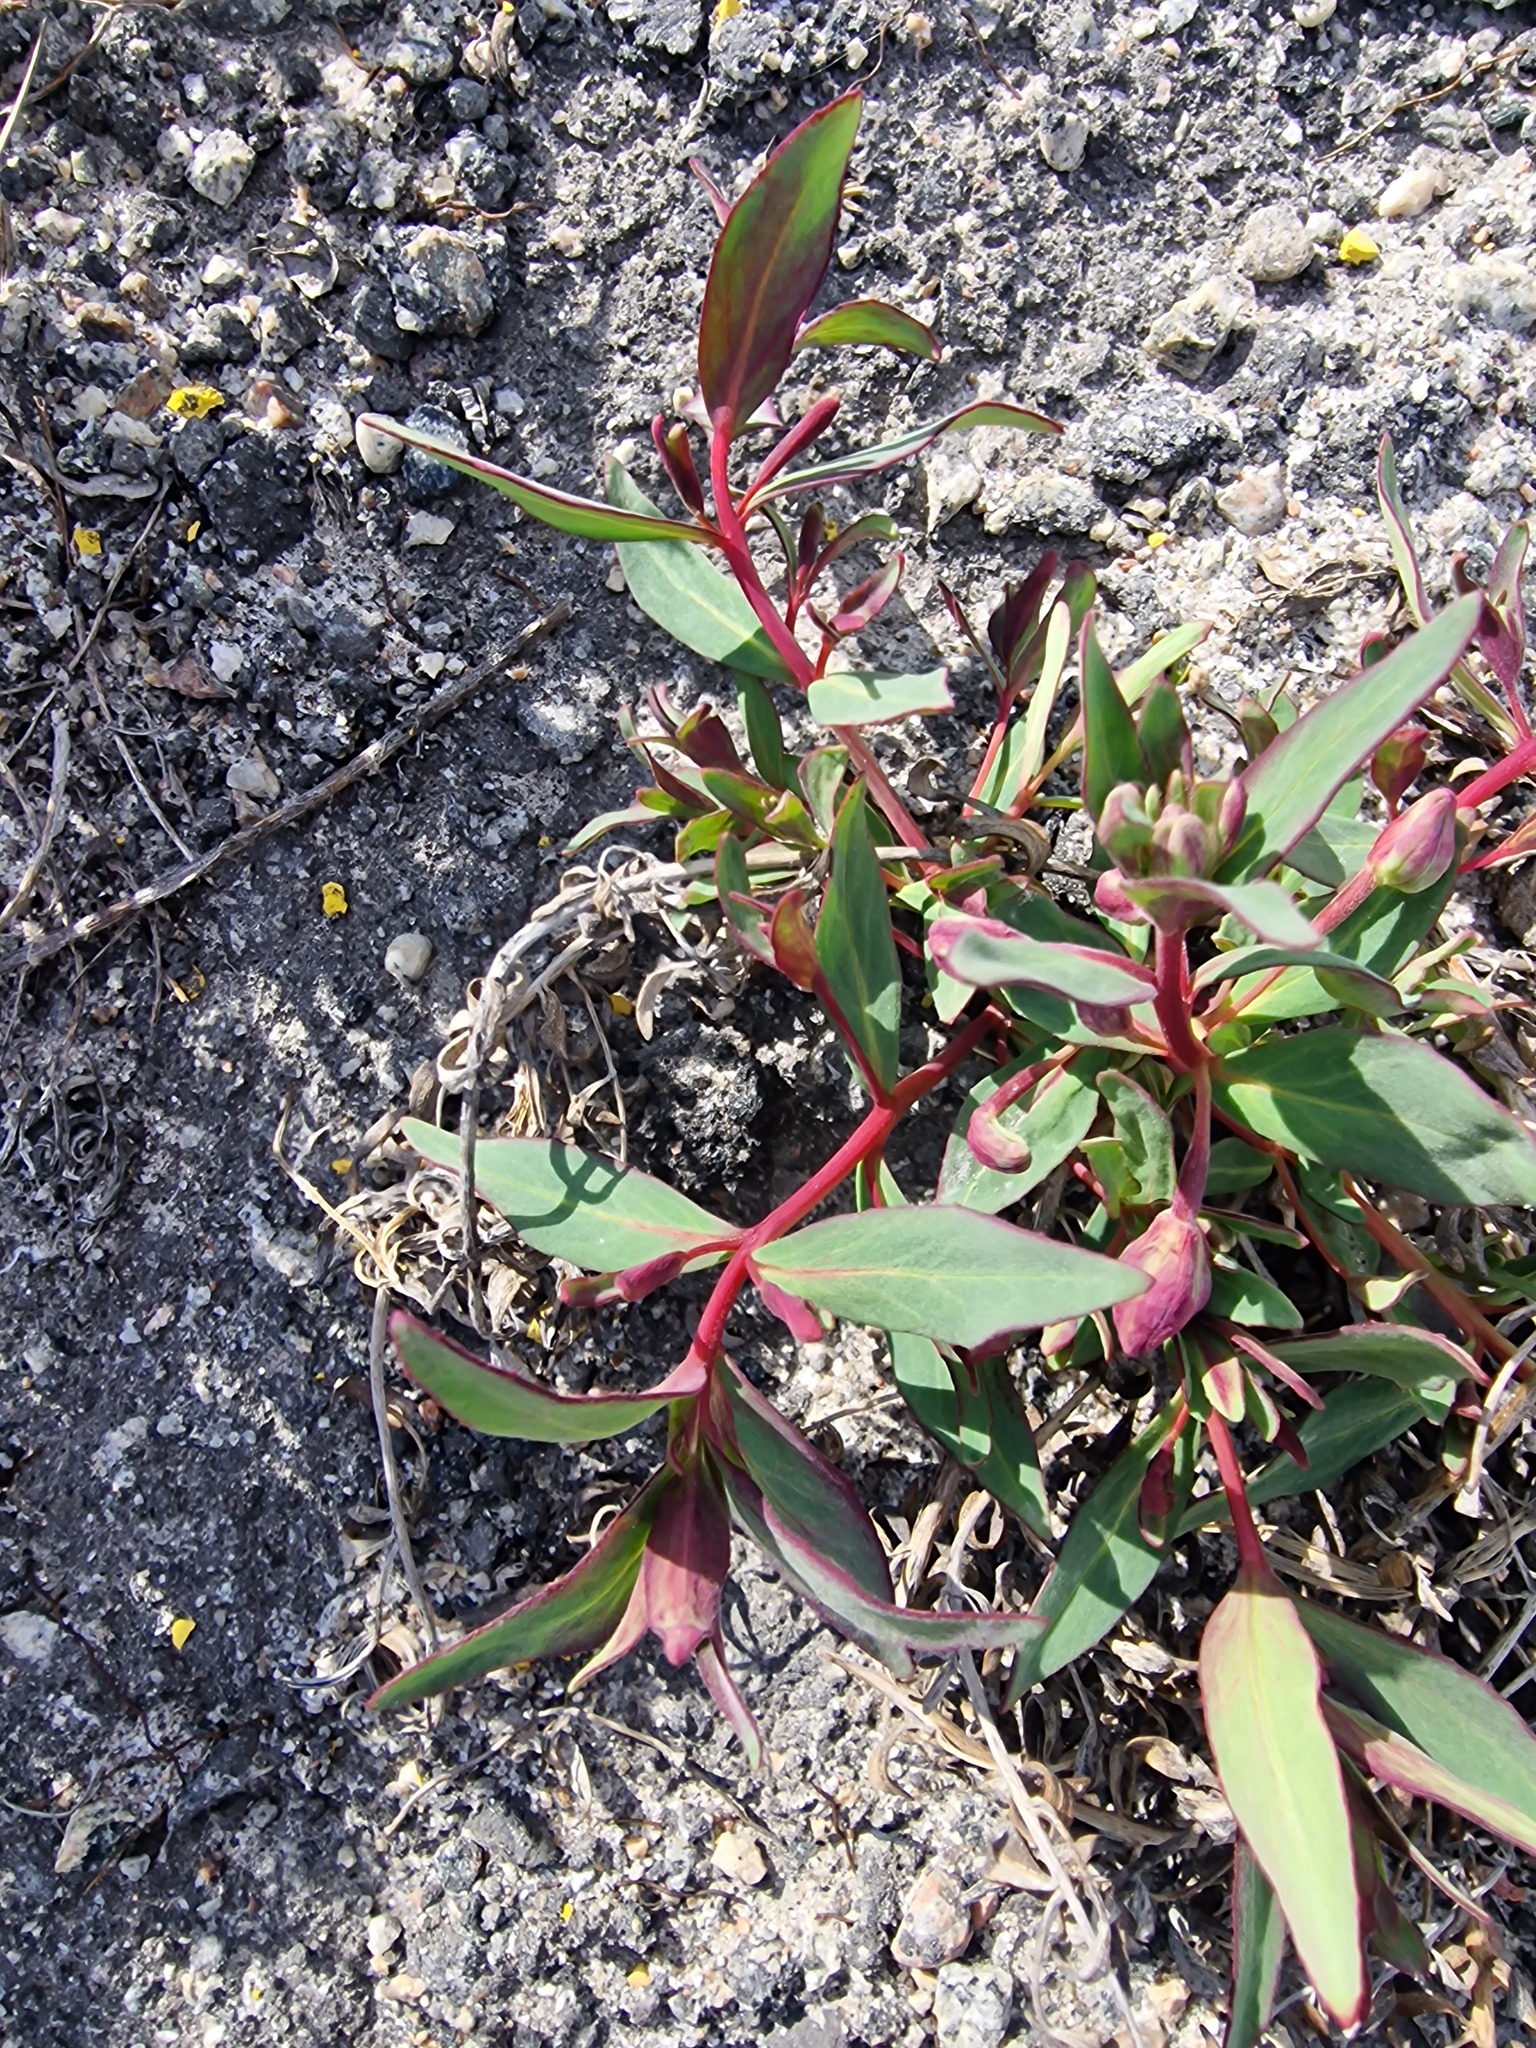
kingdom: Plantae
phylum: Tracheophyta
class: Magnoliopsida
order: Myrtales
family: Onagraceae
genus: Chamaenerion
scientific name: Chamaenerion latifolium
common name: Dwarf fireweed
